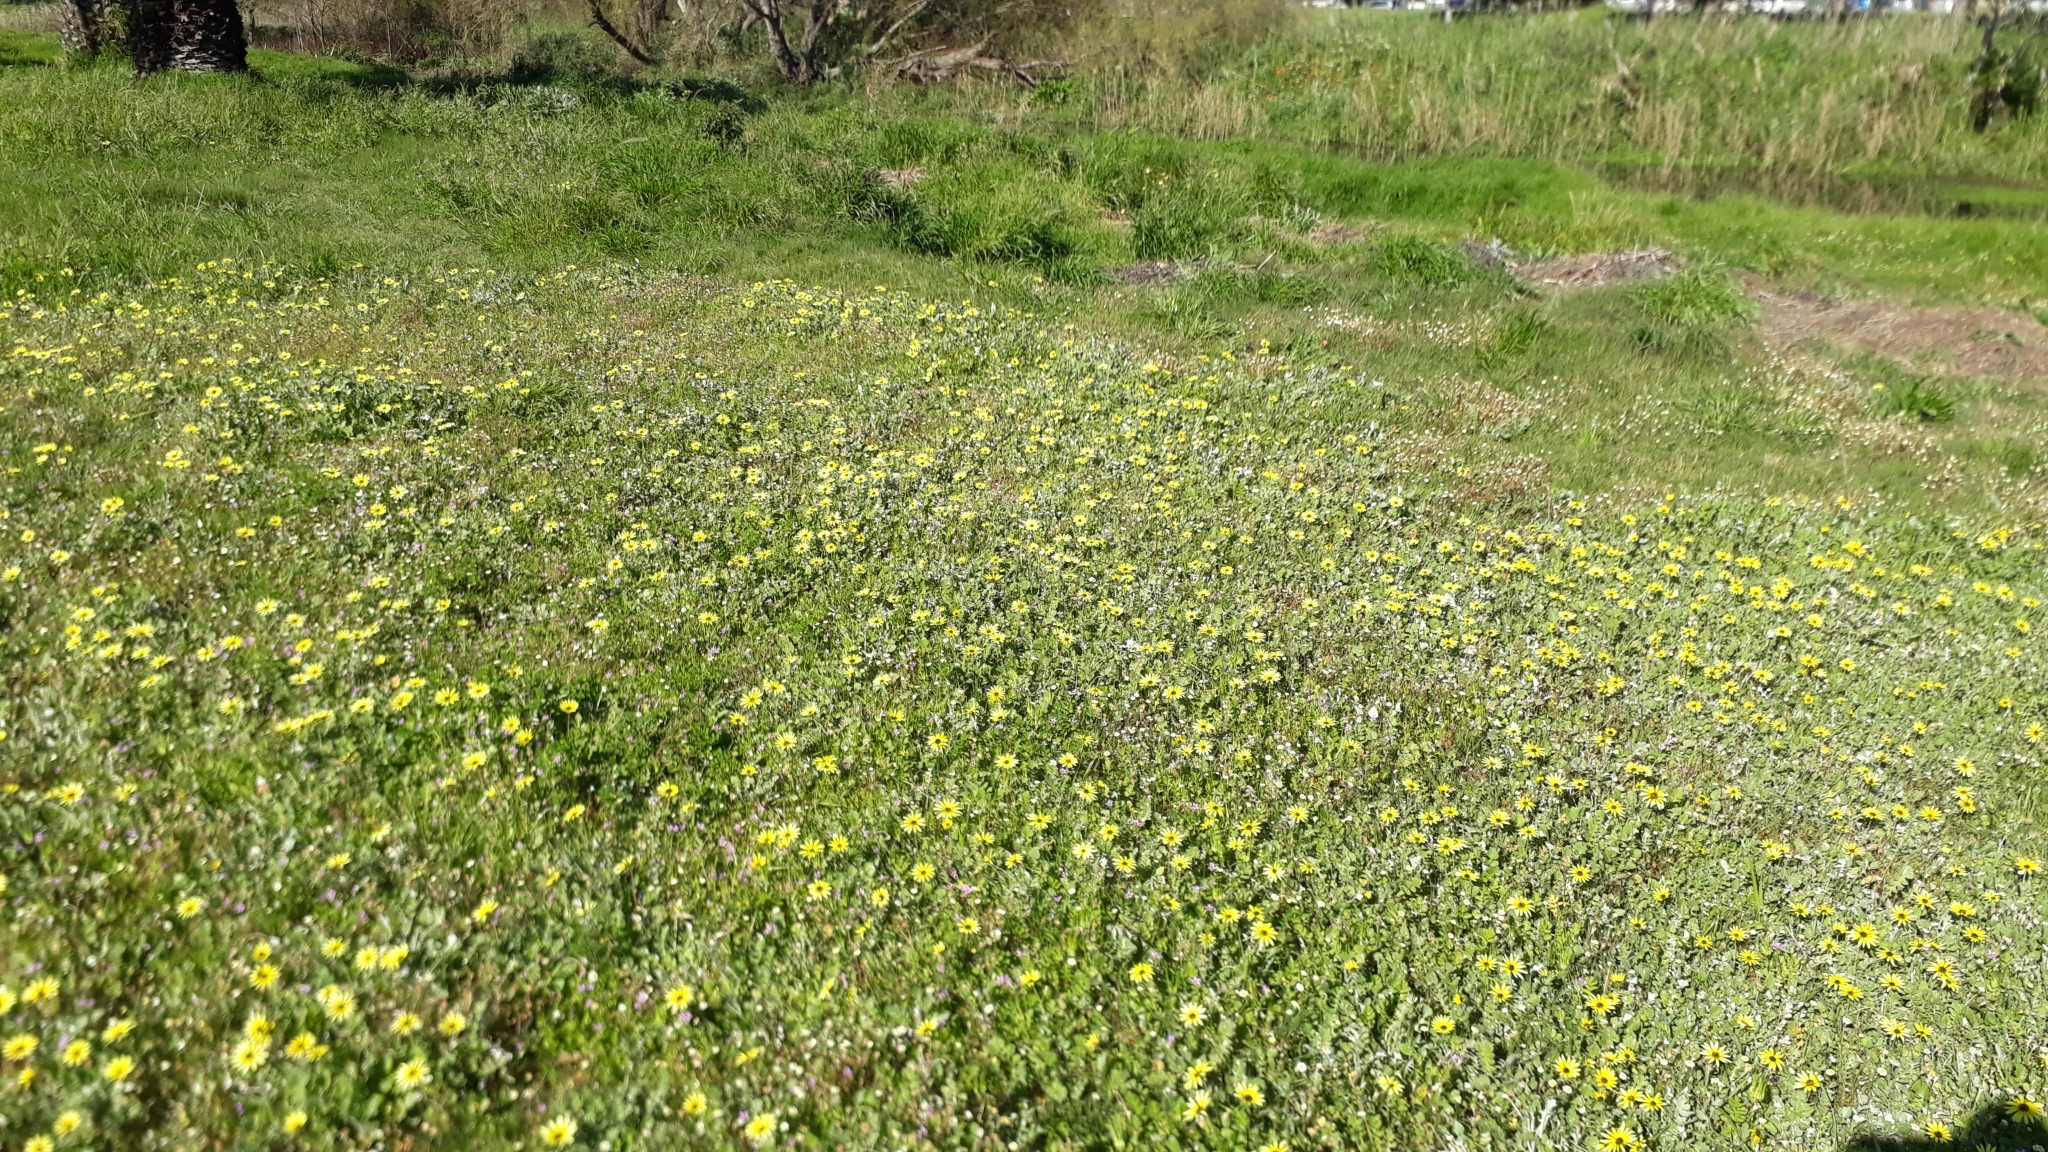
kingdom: Plantae
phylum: Tracheophyta
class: Magnoliopsida
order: Asterales
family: Asteraceae
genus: Arctotheca
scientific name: Arctotheca calendula
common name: Capeweed
